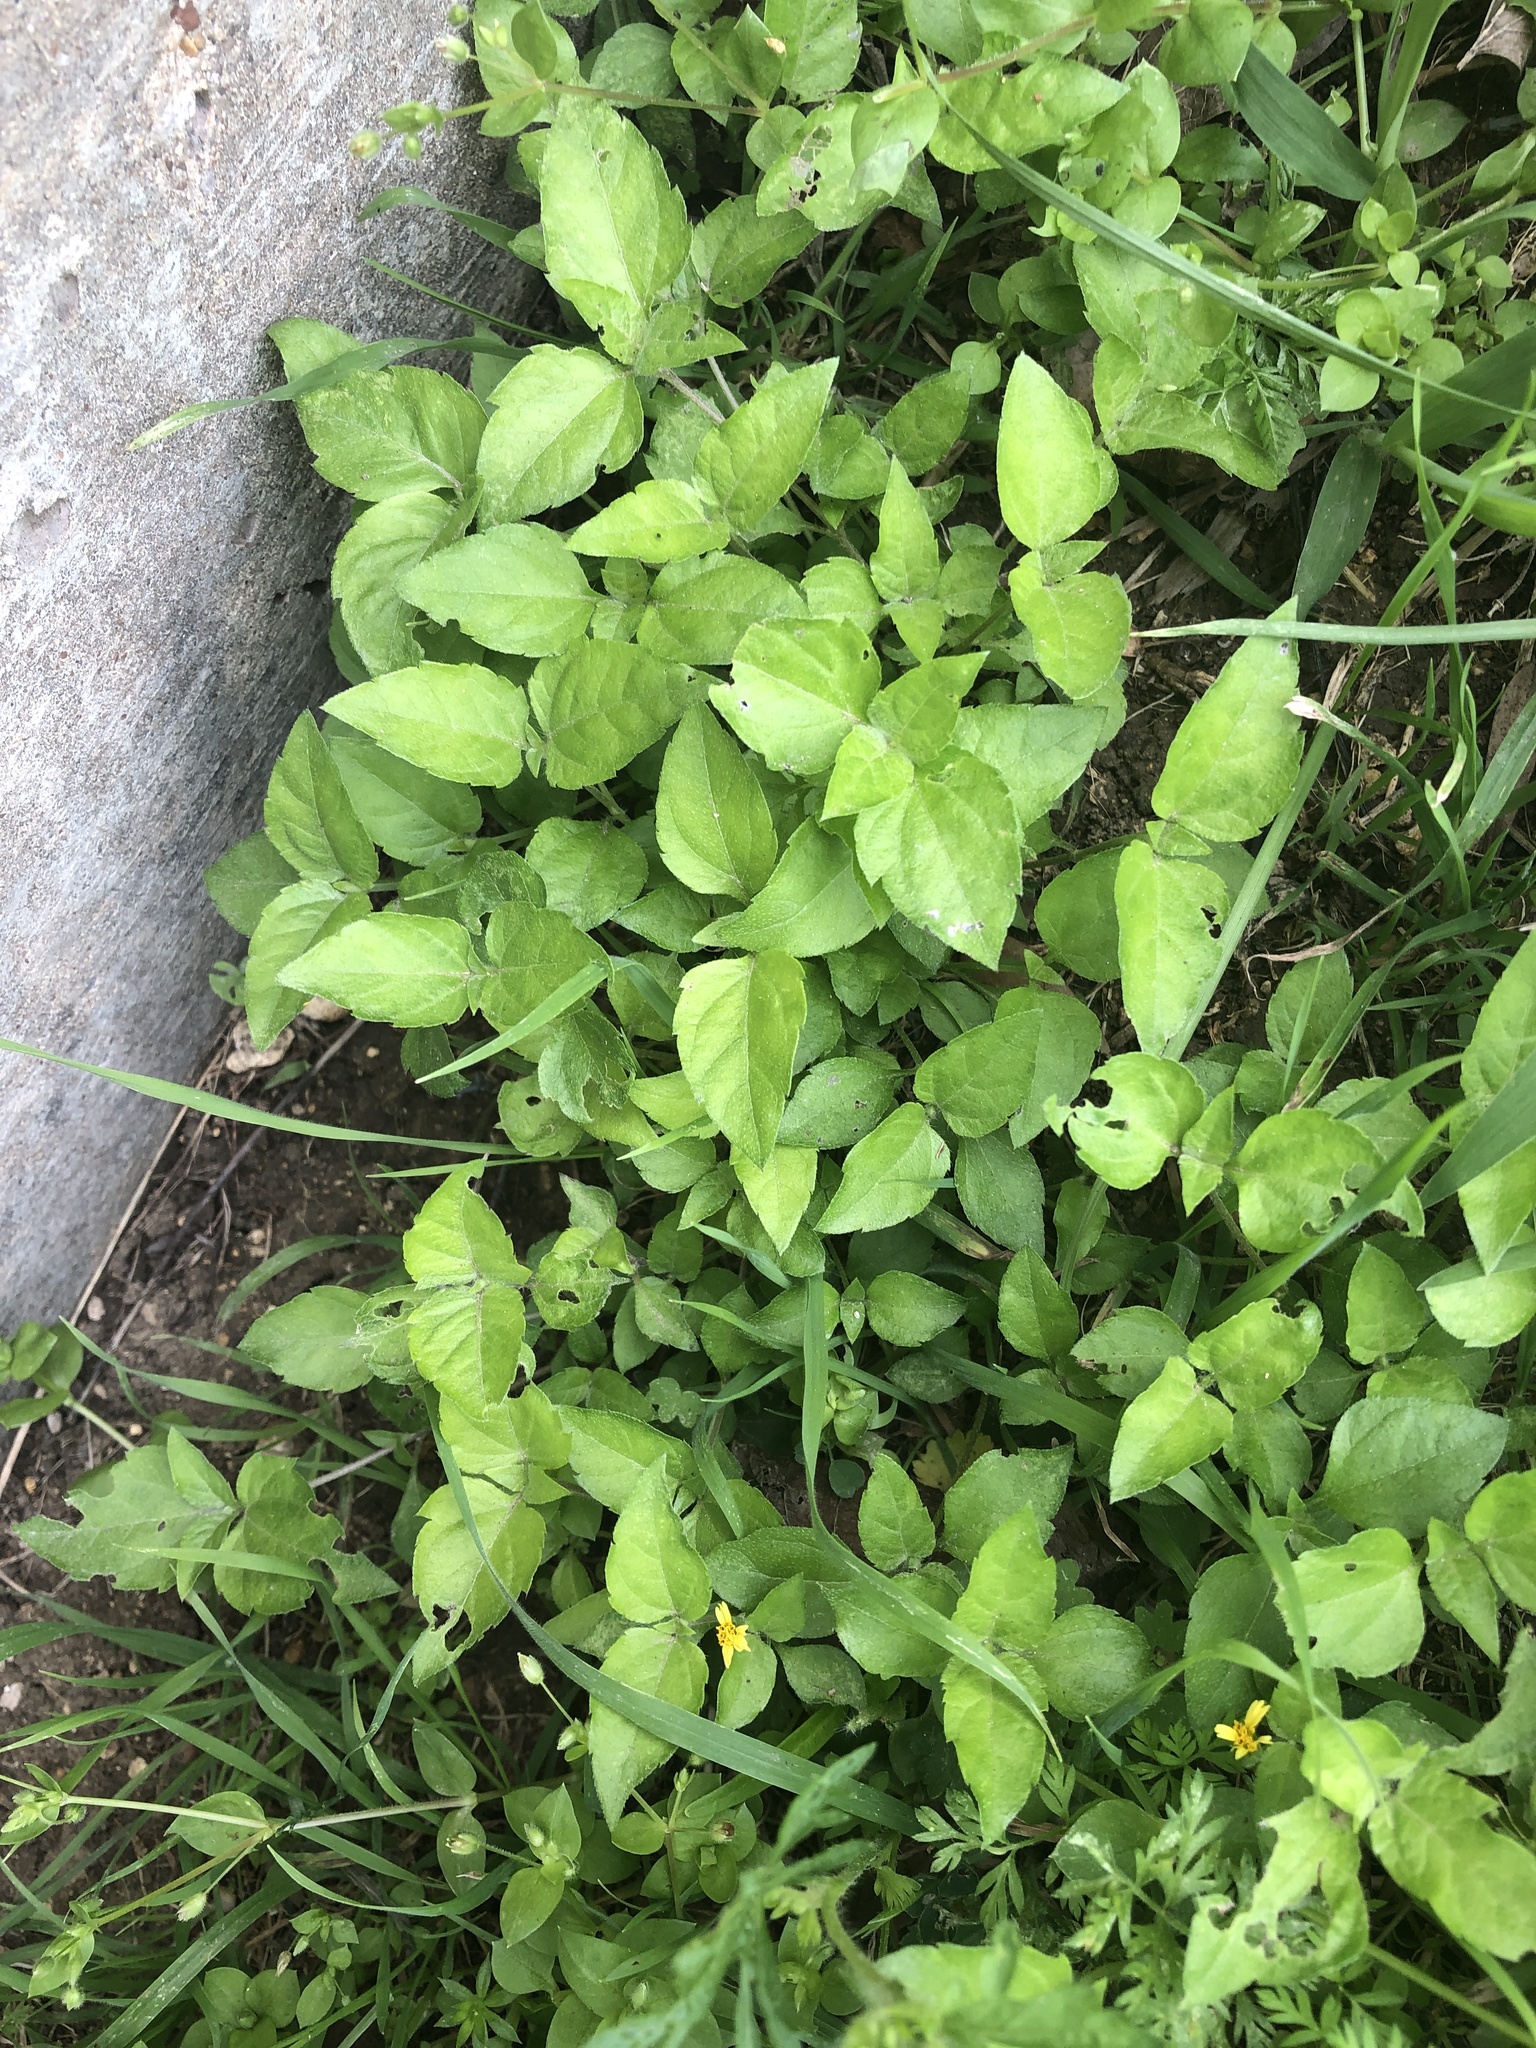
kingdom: Plantae
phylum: Tracheophyta
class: Magnoliopsida
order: Asterales
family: Asteraceae
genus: Calyptocarpus
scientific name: Calyptocarpus vialis
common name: Straggler daisy
